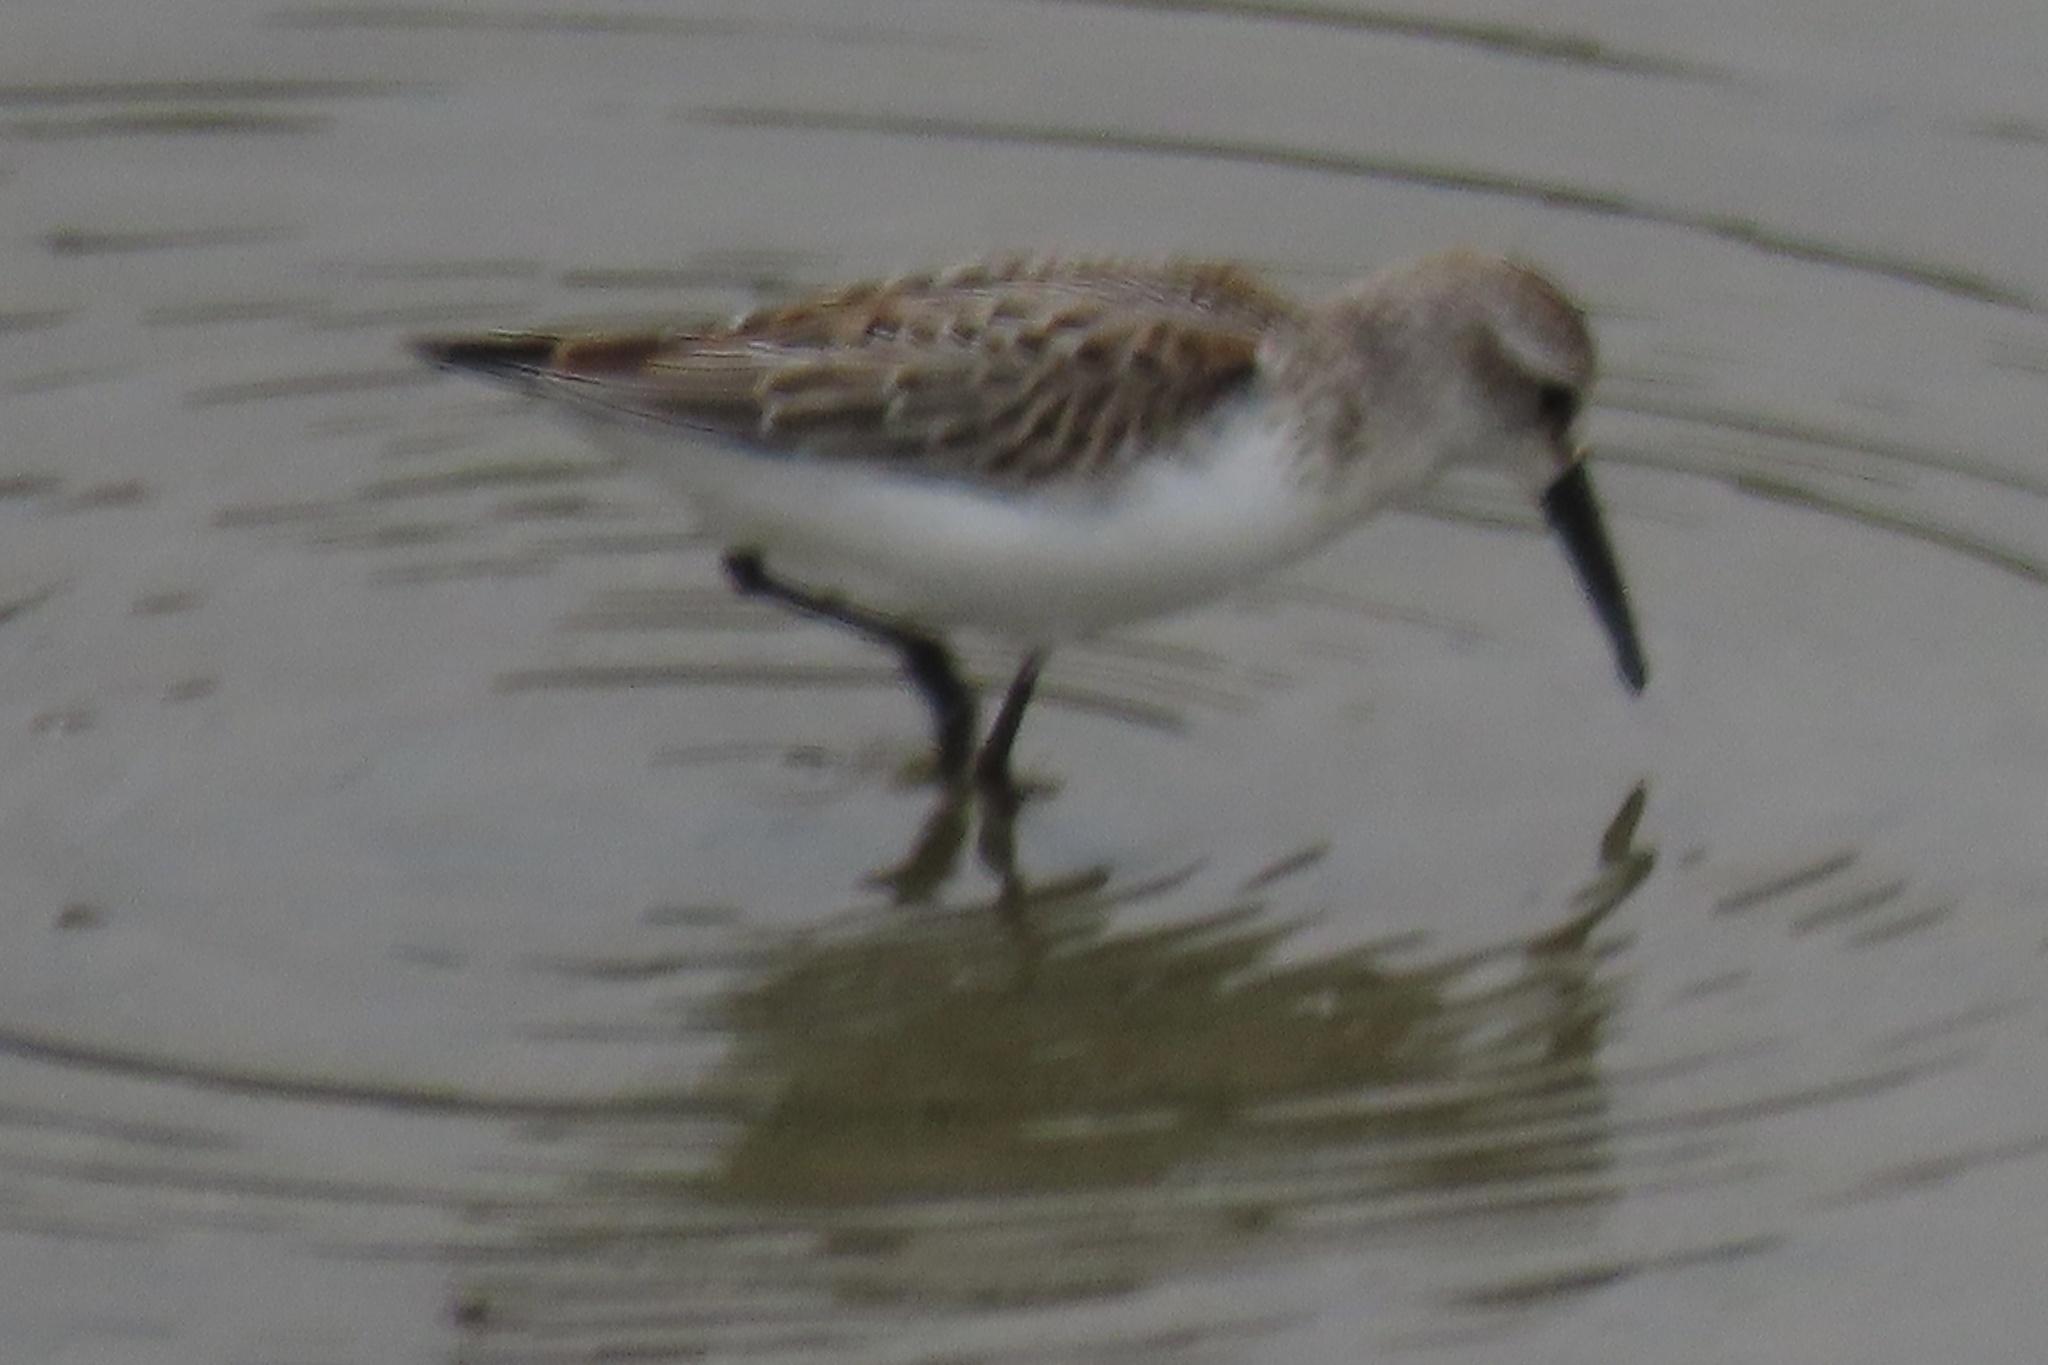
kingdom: Animalia
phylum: Chordata
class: Aves
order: Charadriiformes
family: Scolopacidae
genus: Calidris
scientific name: Calidris mauri
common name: Western sandpiper
